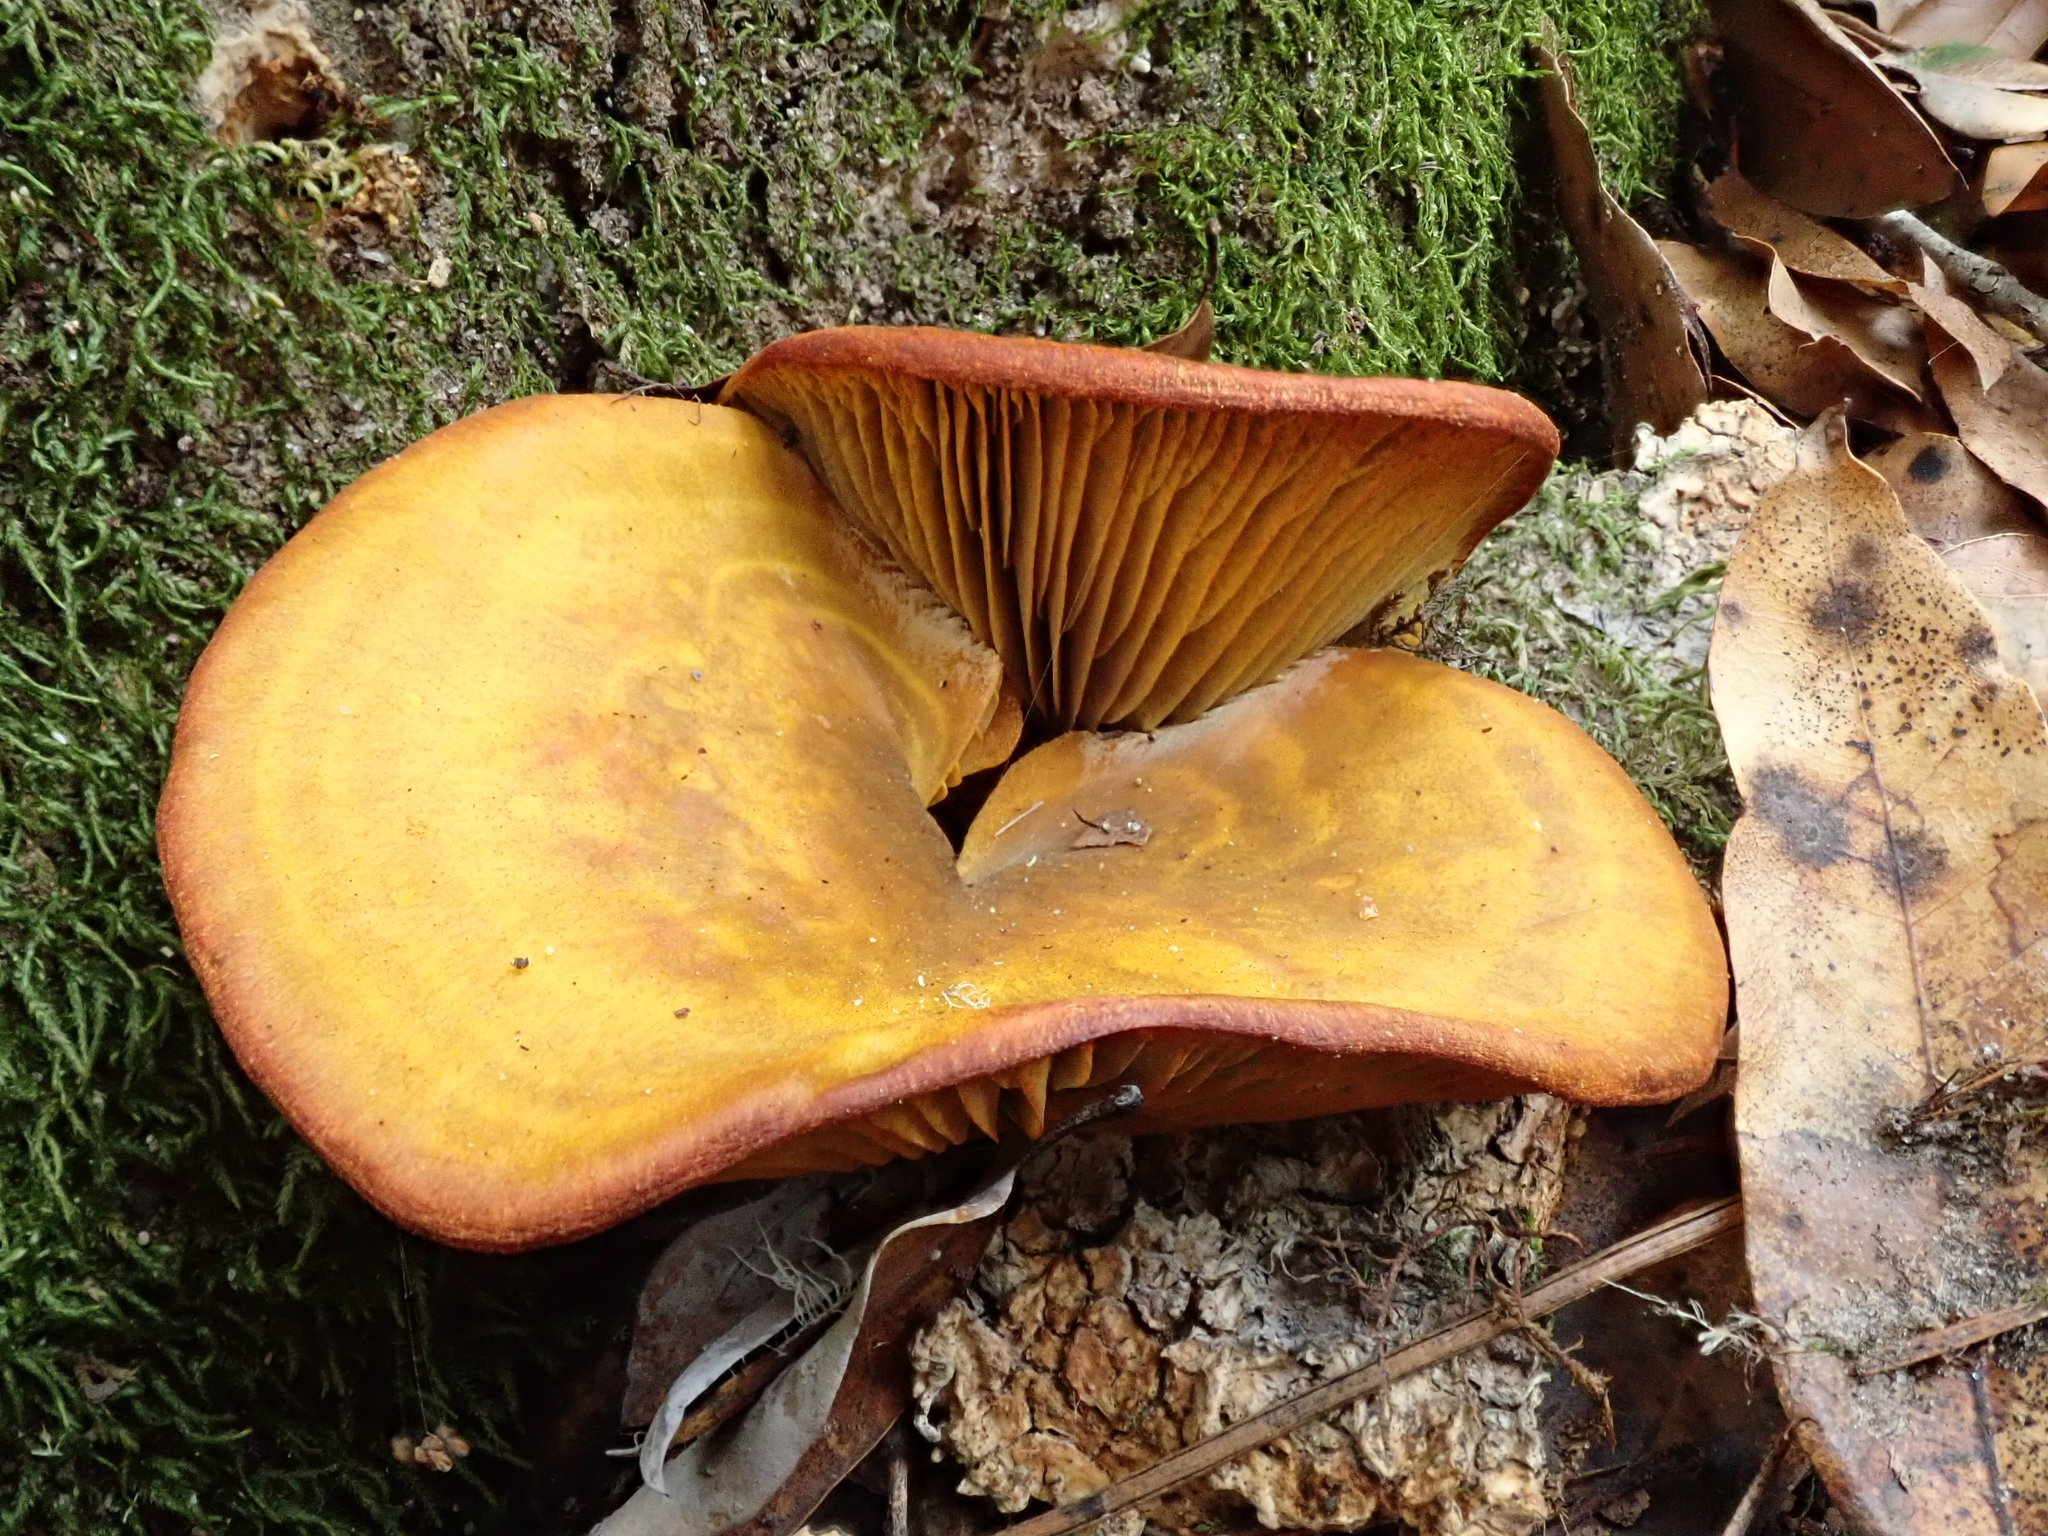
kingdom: Fungi
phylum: Basidiomycota
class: Agaricomycetes
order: Agaricales
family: Omphalotaceae
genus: Omphalotus
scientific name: Omphalotus olivascens
